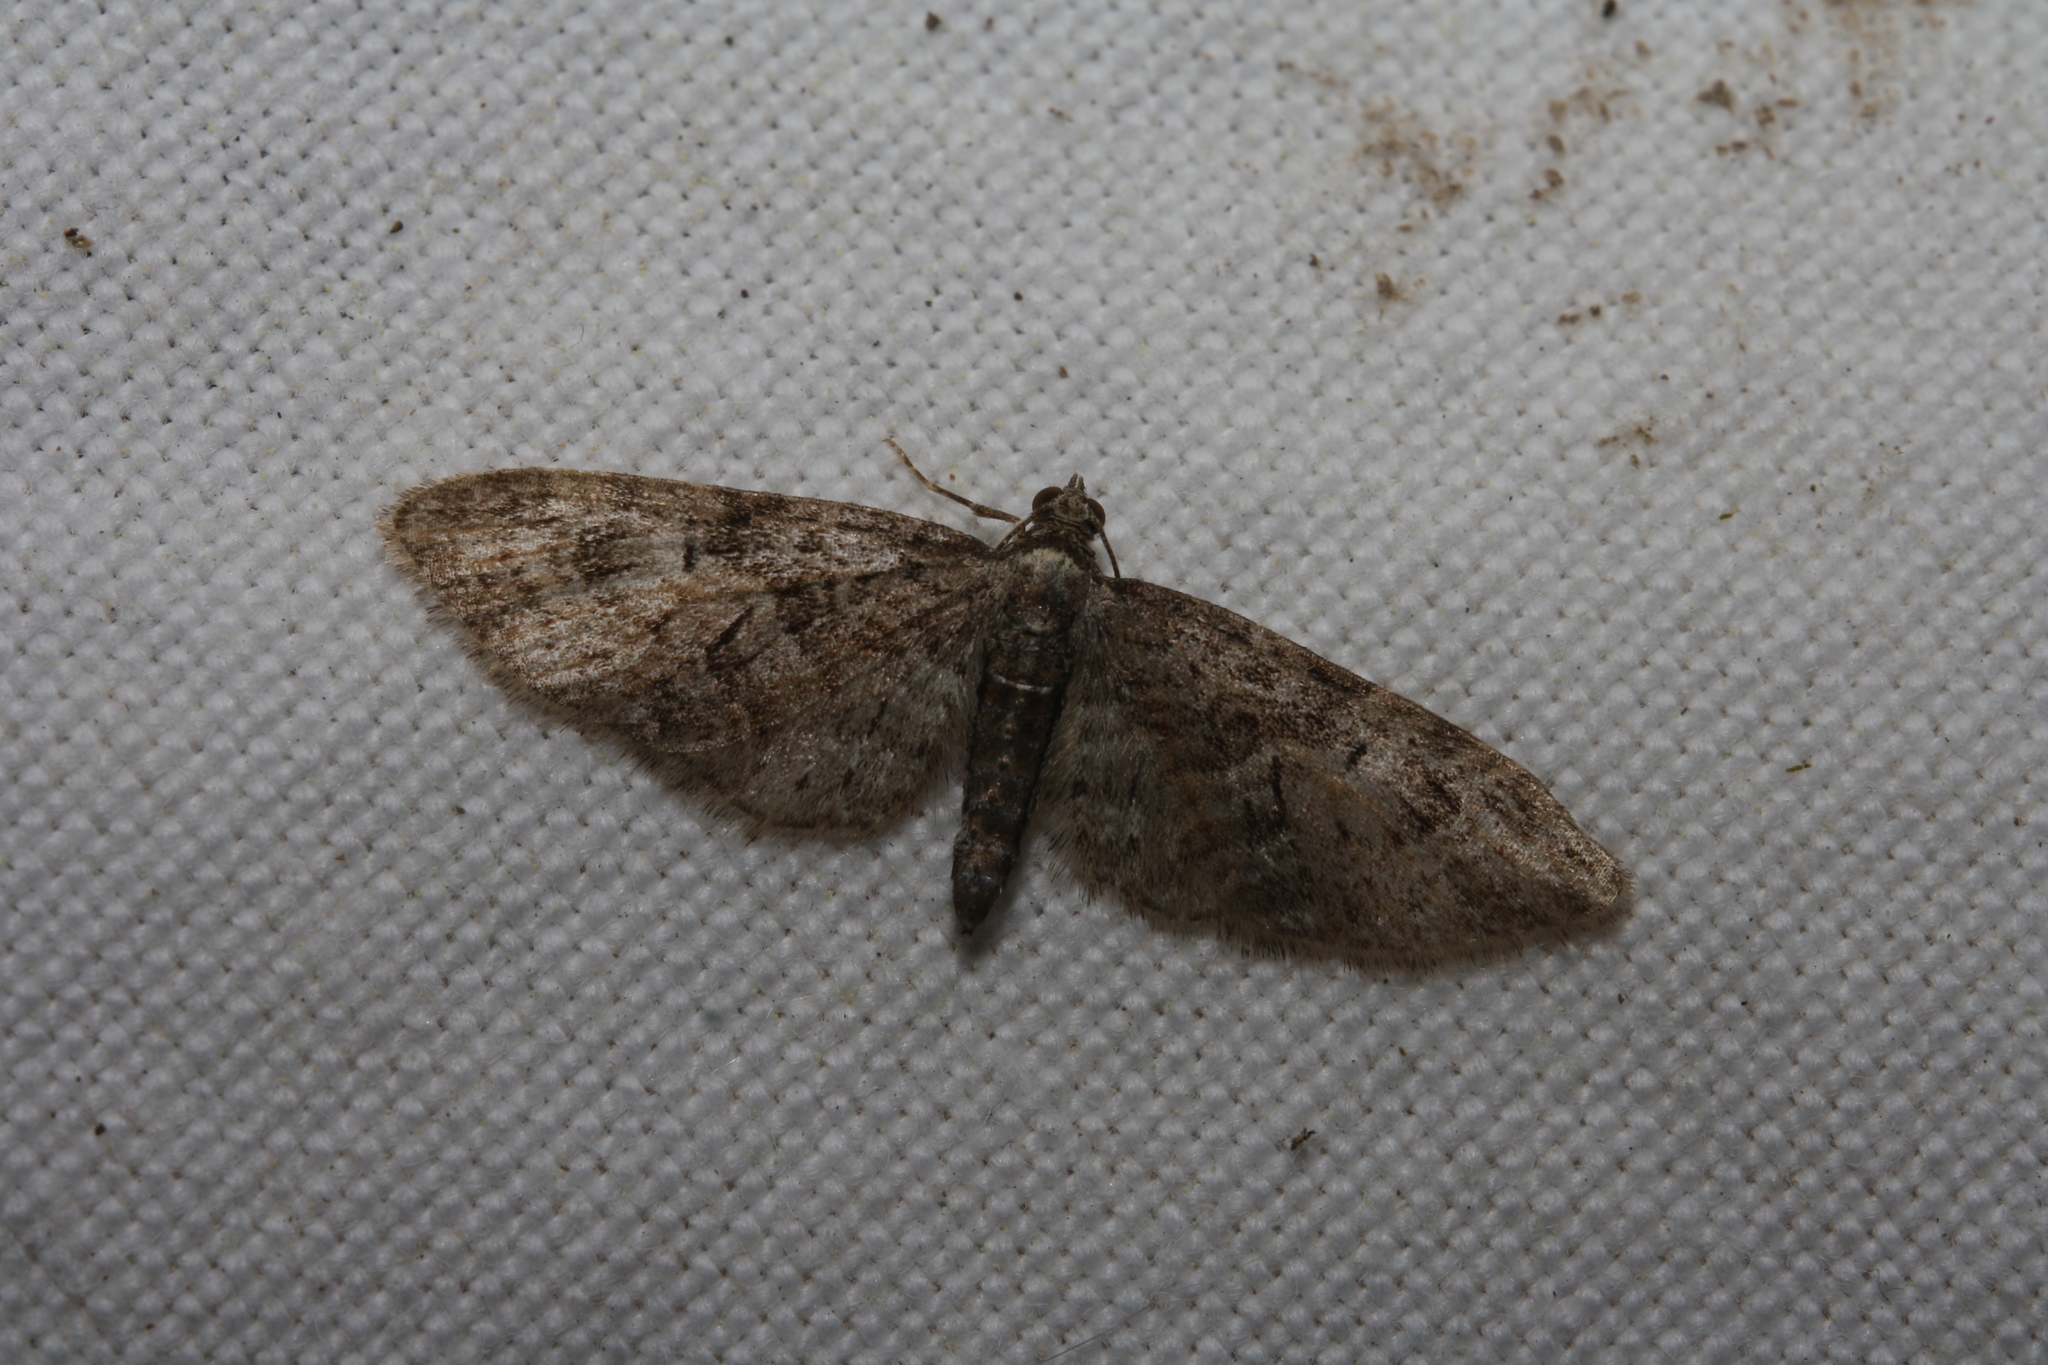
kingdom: Animalia
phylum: Arthropoda
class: Insecta
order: Lepidoptera
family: Geometridae
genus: Eupithecia
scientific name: Eupithecia abbreviata
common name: Brindled pug
